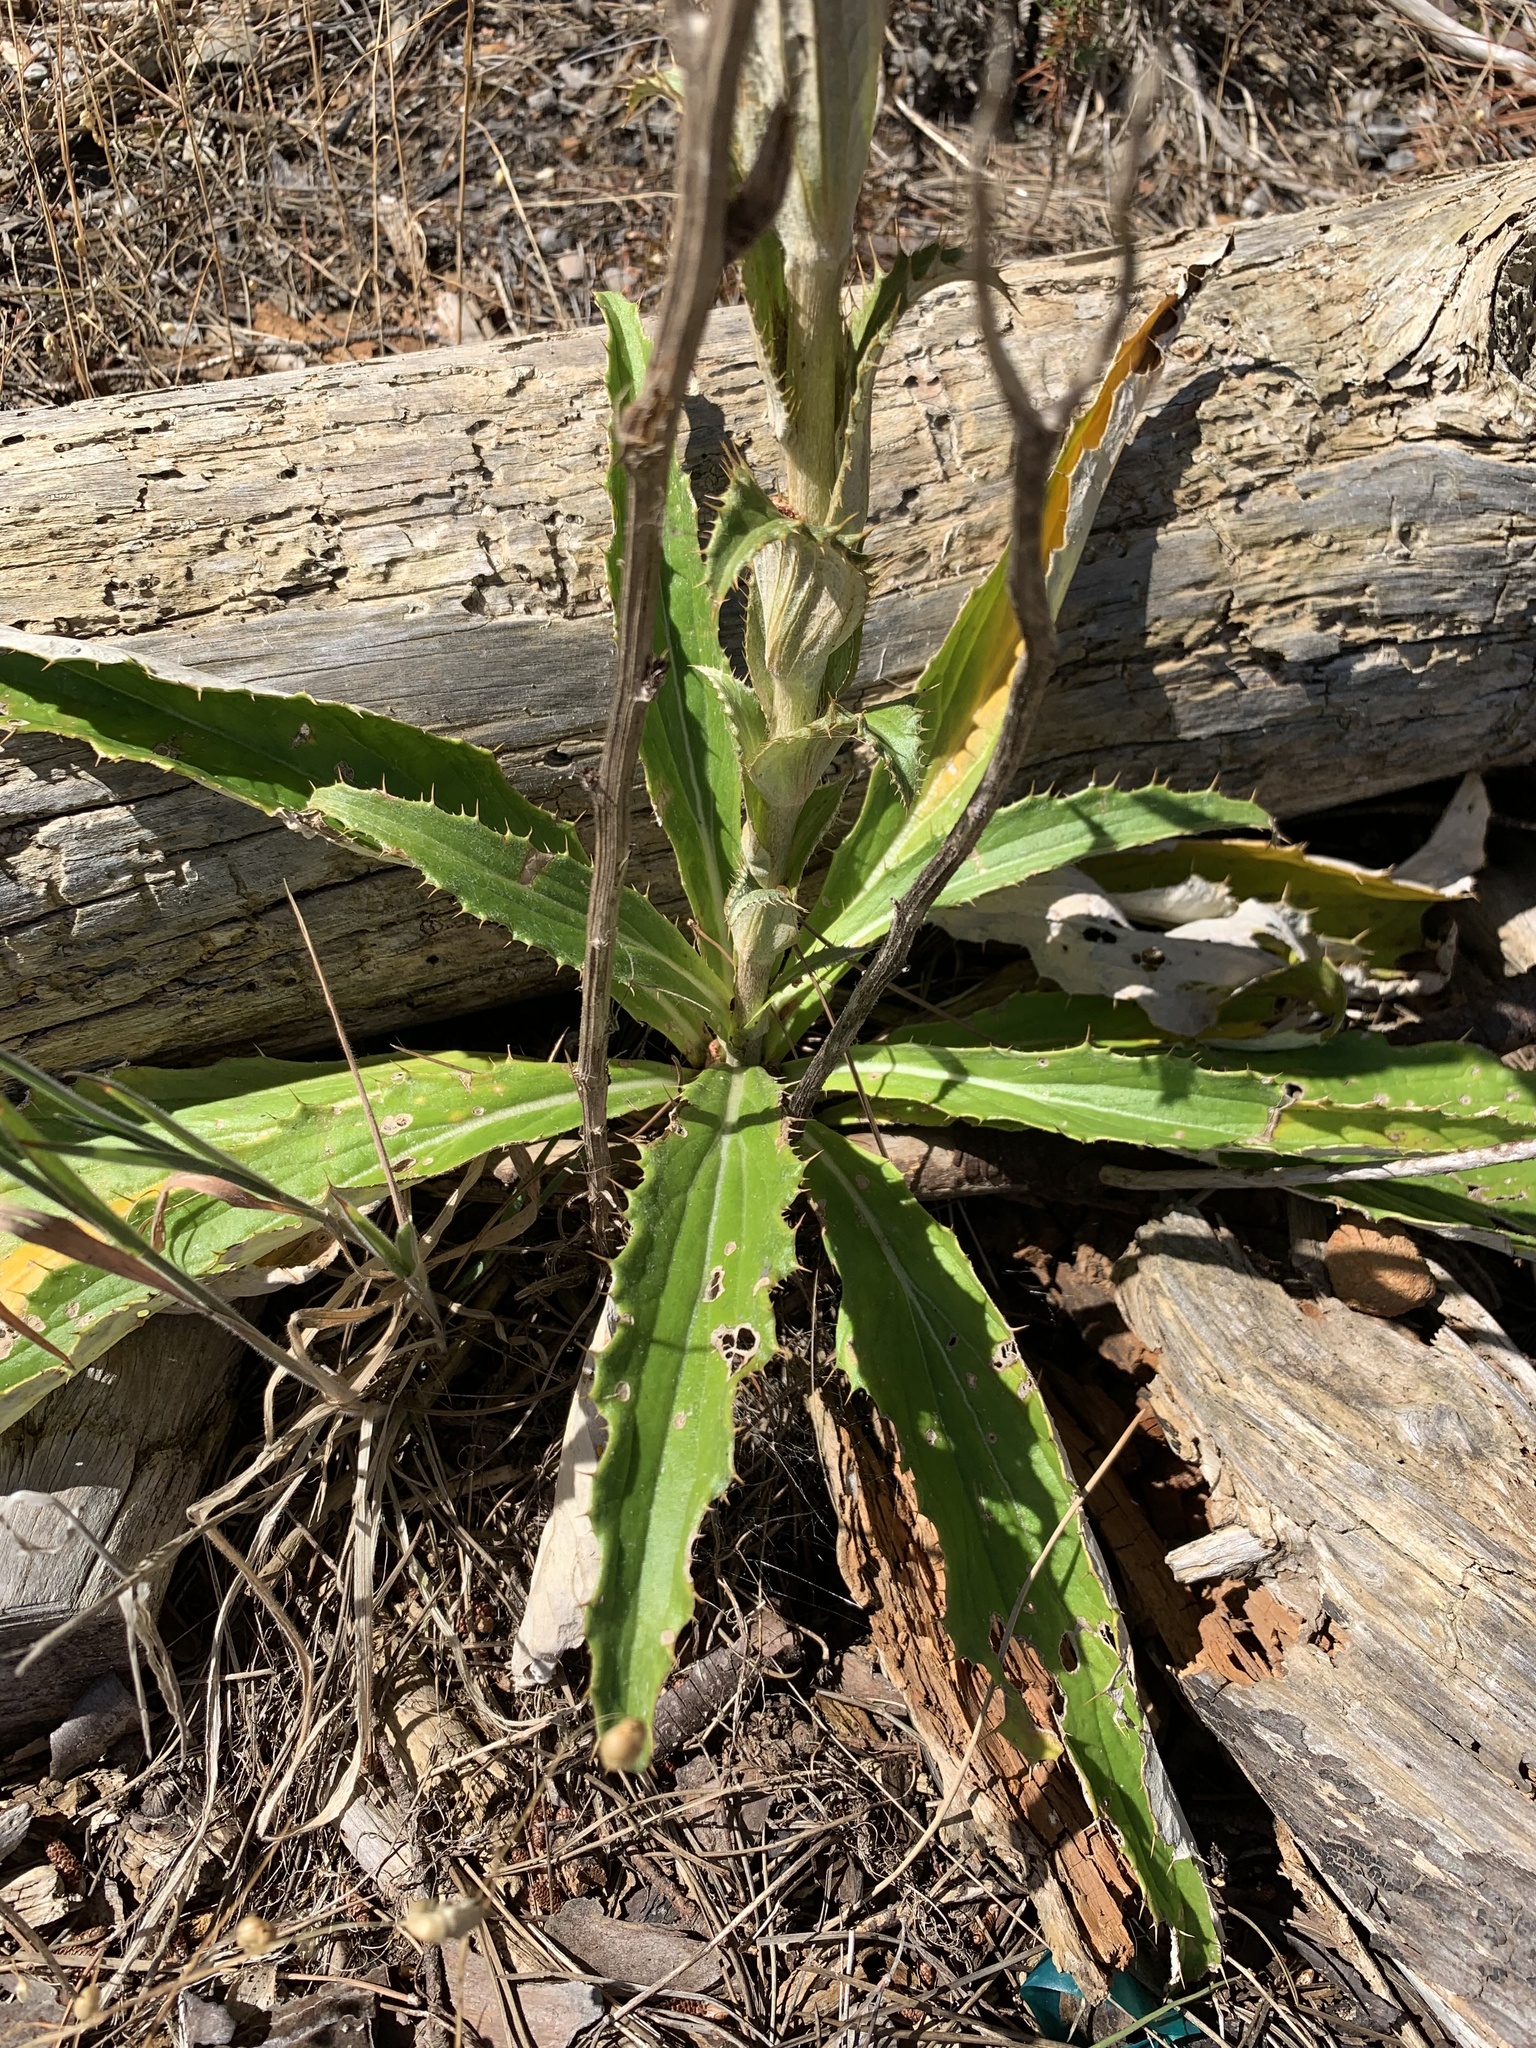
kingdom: Plantae
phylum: Tracheophyta
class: Magnoliopsida
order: Asterales
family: Asteraceae
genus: Berkheya
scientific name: Berkheya armata
